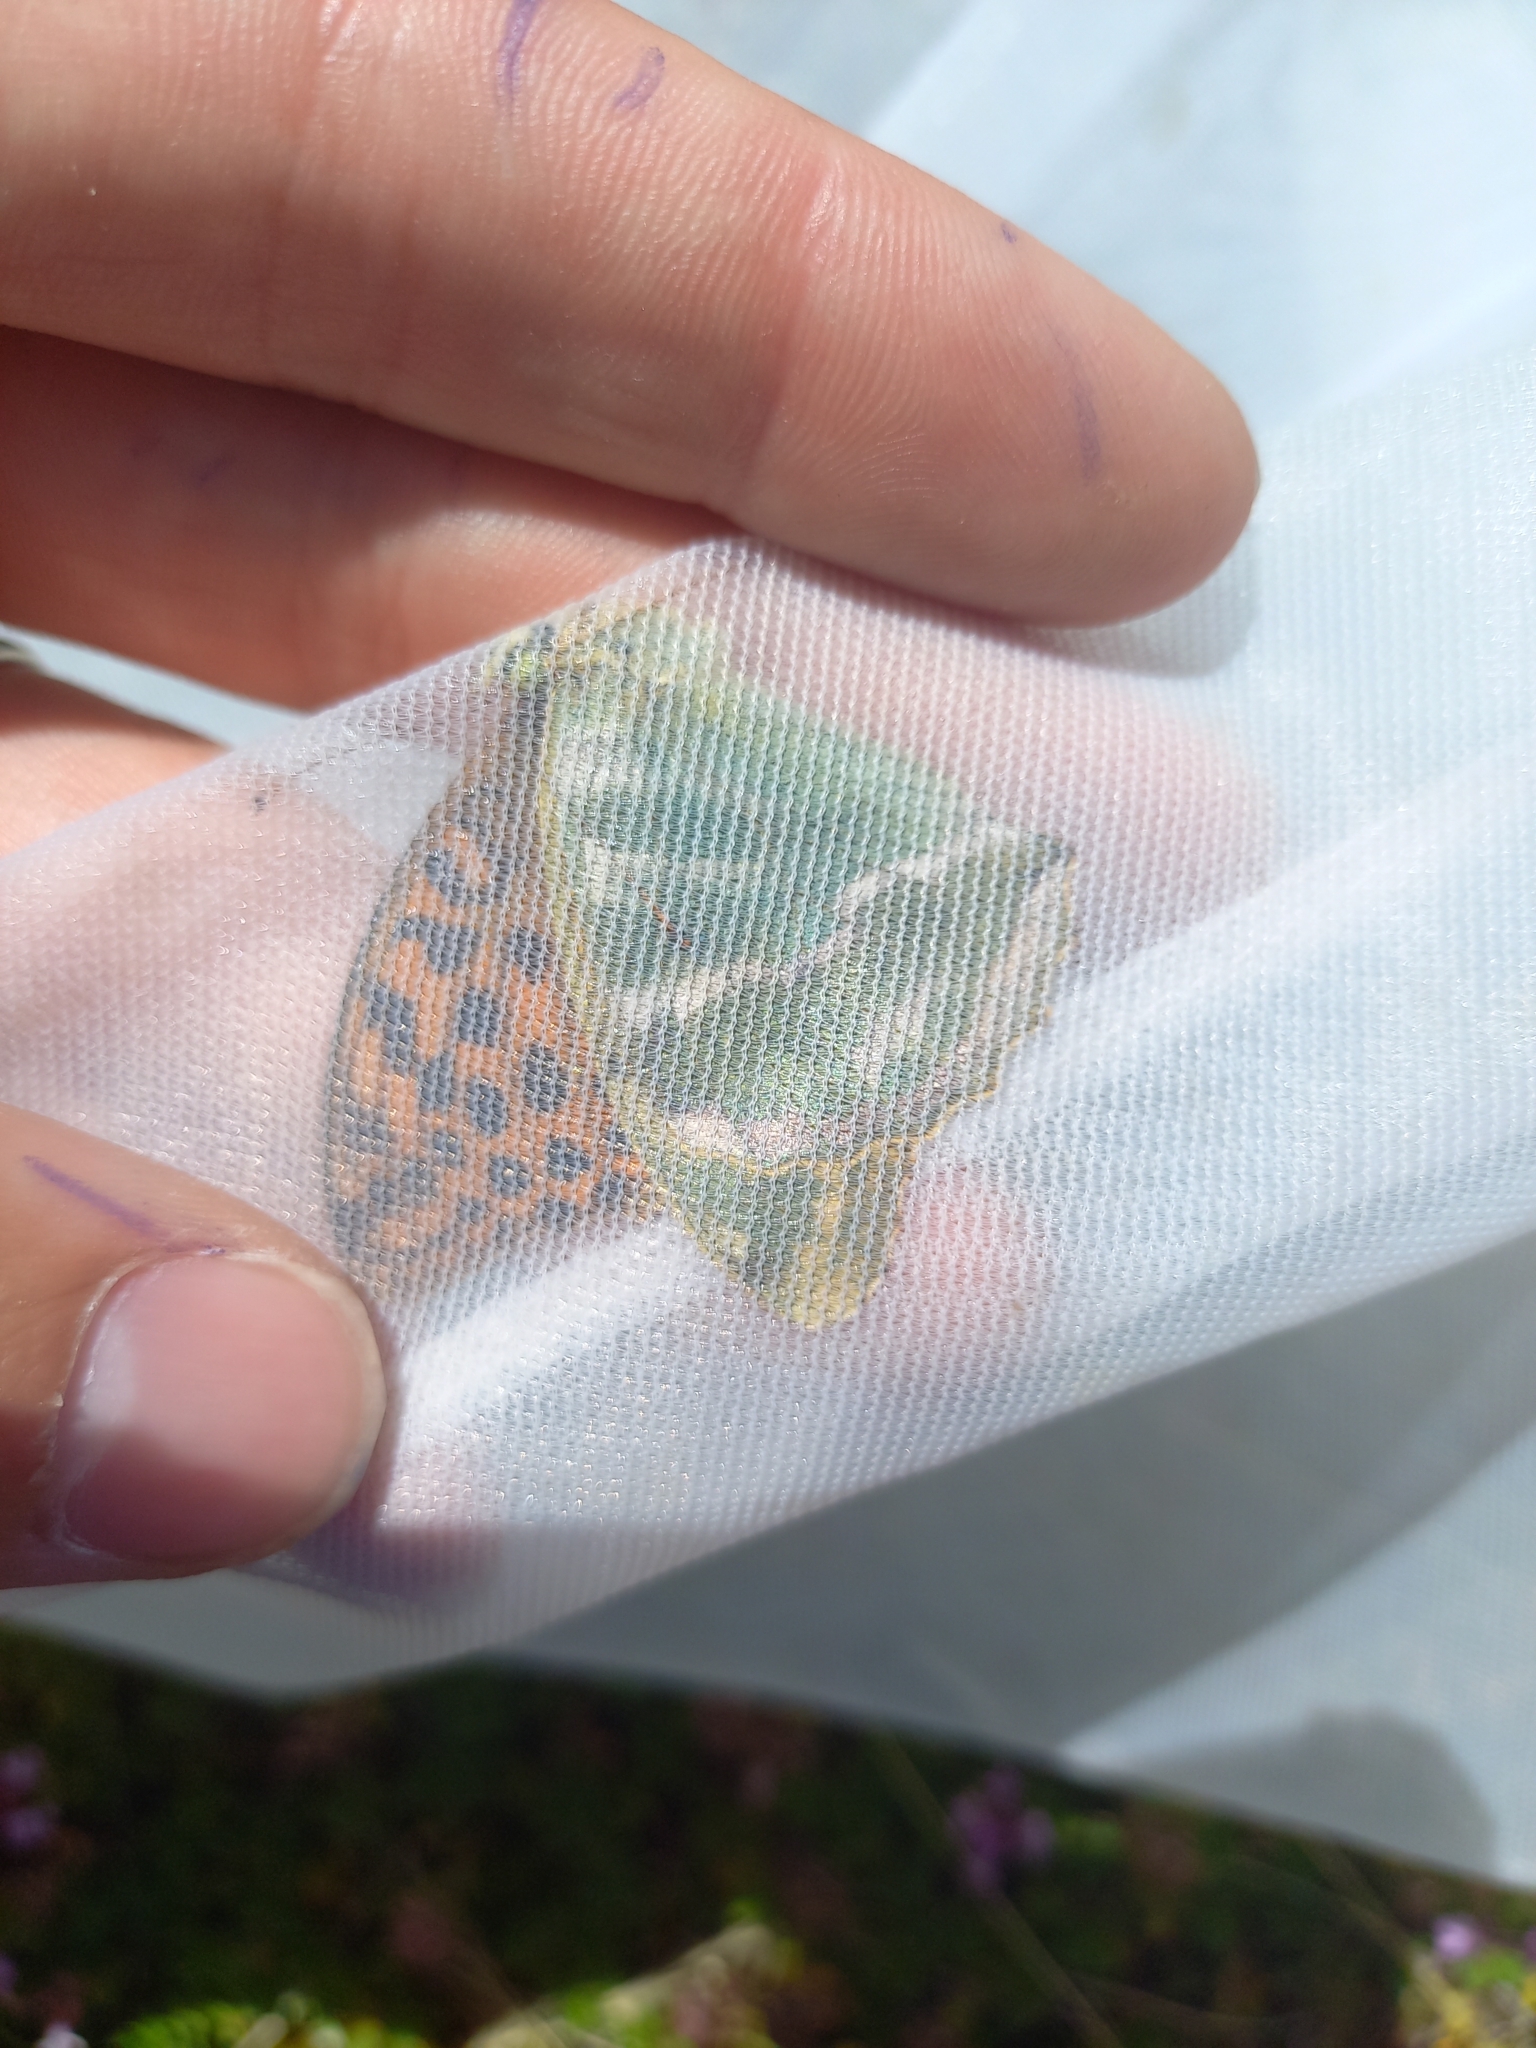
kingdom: Animalia
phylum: Arthropoda
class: Insecta
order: Lepidoptera
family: Nymphalidae
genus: Argynnis
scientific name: Argynnis paphia
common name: Silver-washed fritillary
